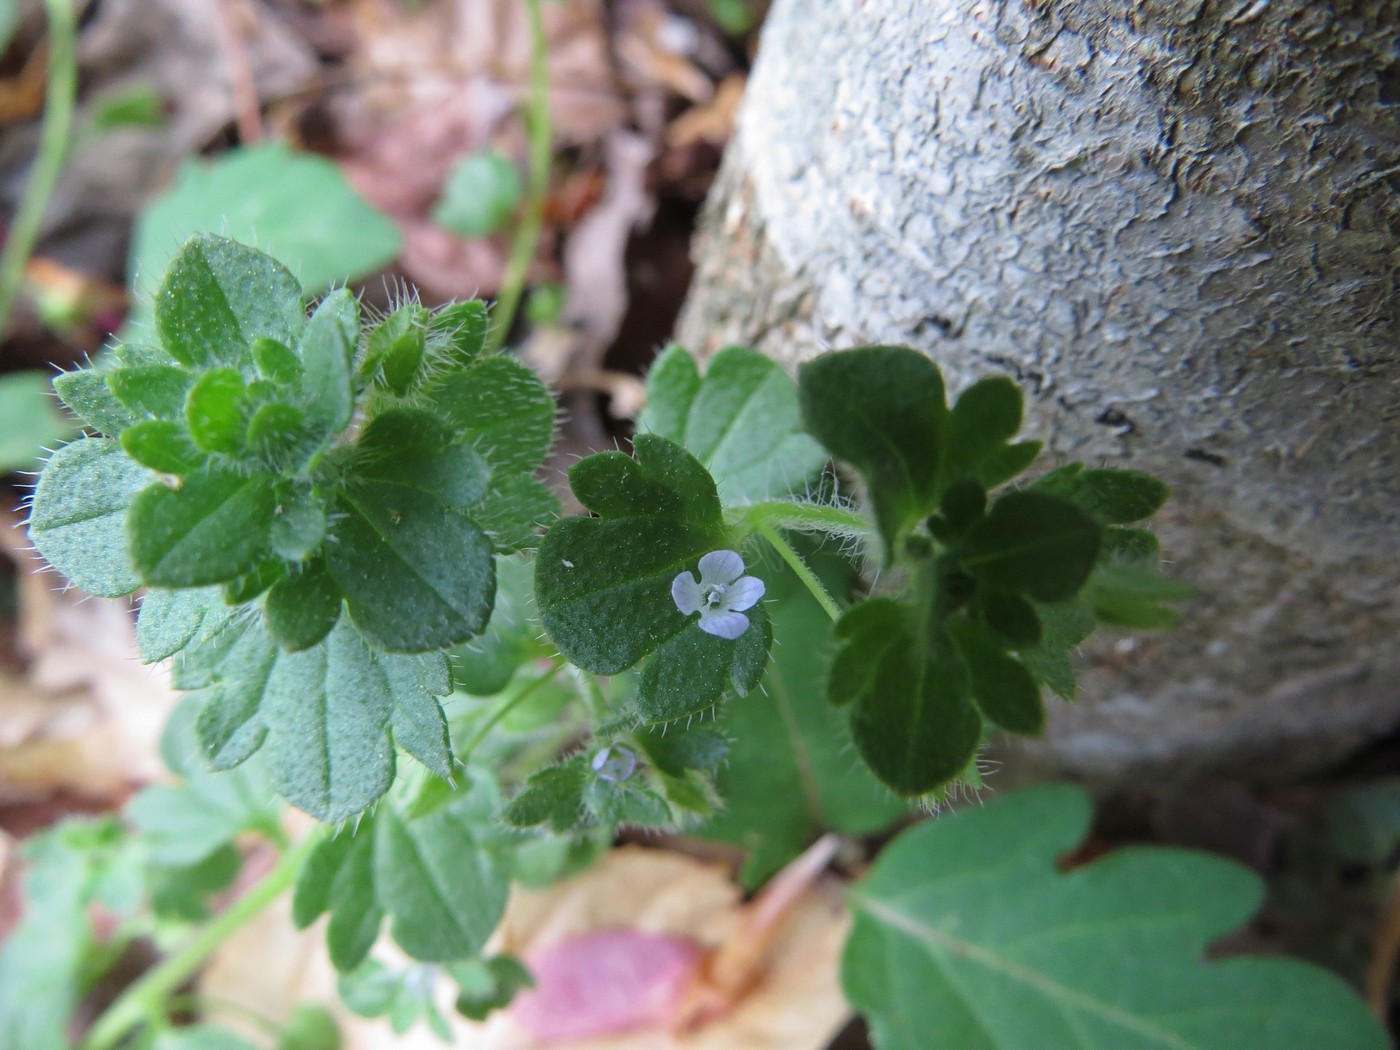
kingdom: Plantae
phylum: Tracheophyta
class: Magnoliopsida
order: Lamiales
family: Plantaginaceae
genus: Veronica
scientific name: Veronica hederifolia
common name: Ivy-leaved speedwell
